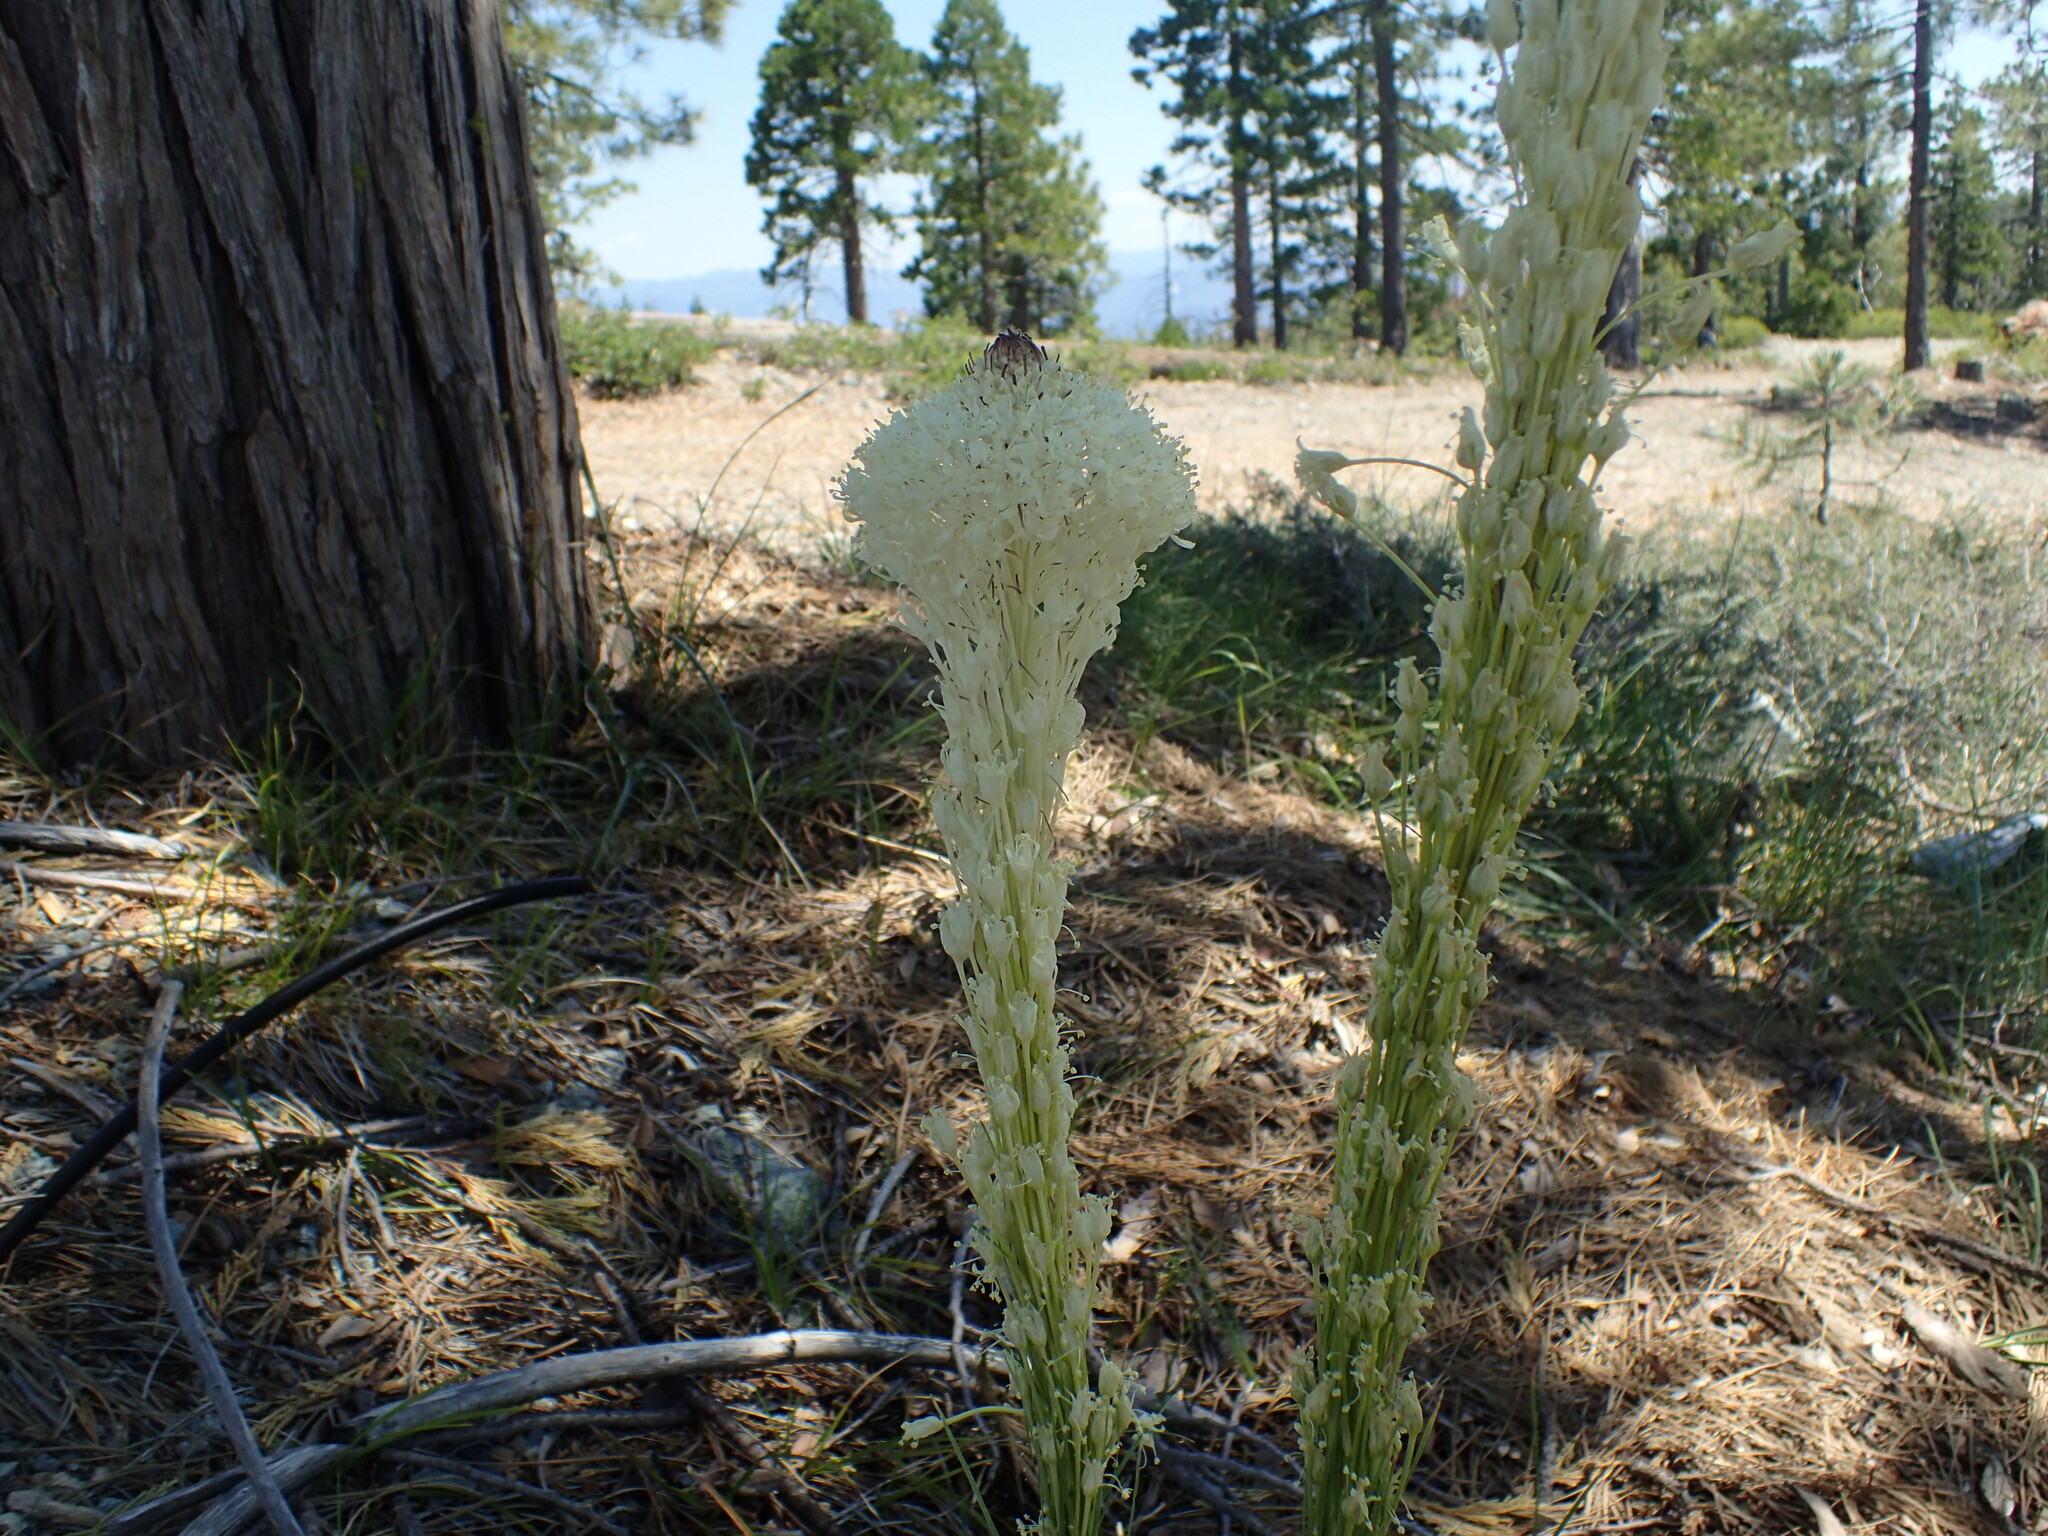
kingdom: Plantae
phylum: Tracheophyta
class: Liliopsida
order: Liliales
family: Melanthiaceae
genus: Xerophyllum
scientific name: Xerophyllum tenax
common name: Bear-grass
